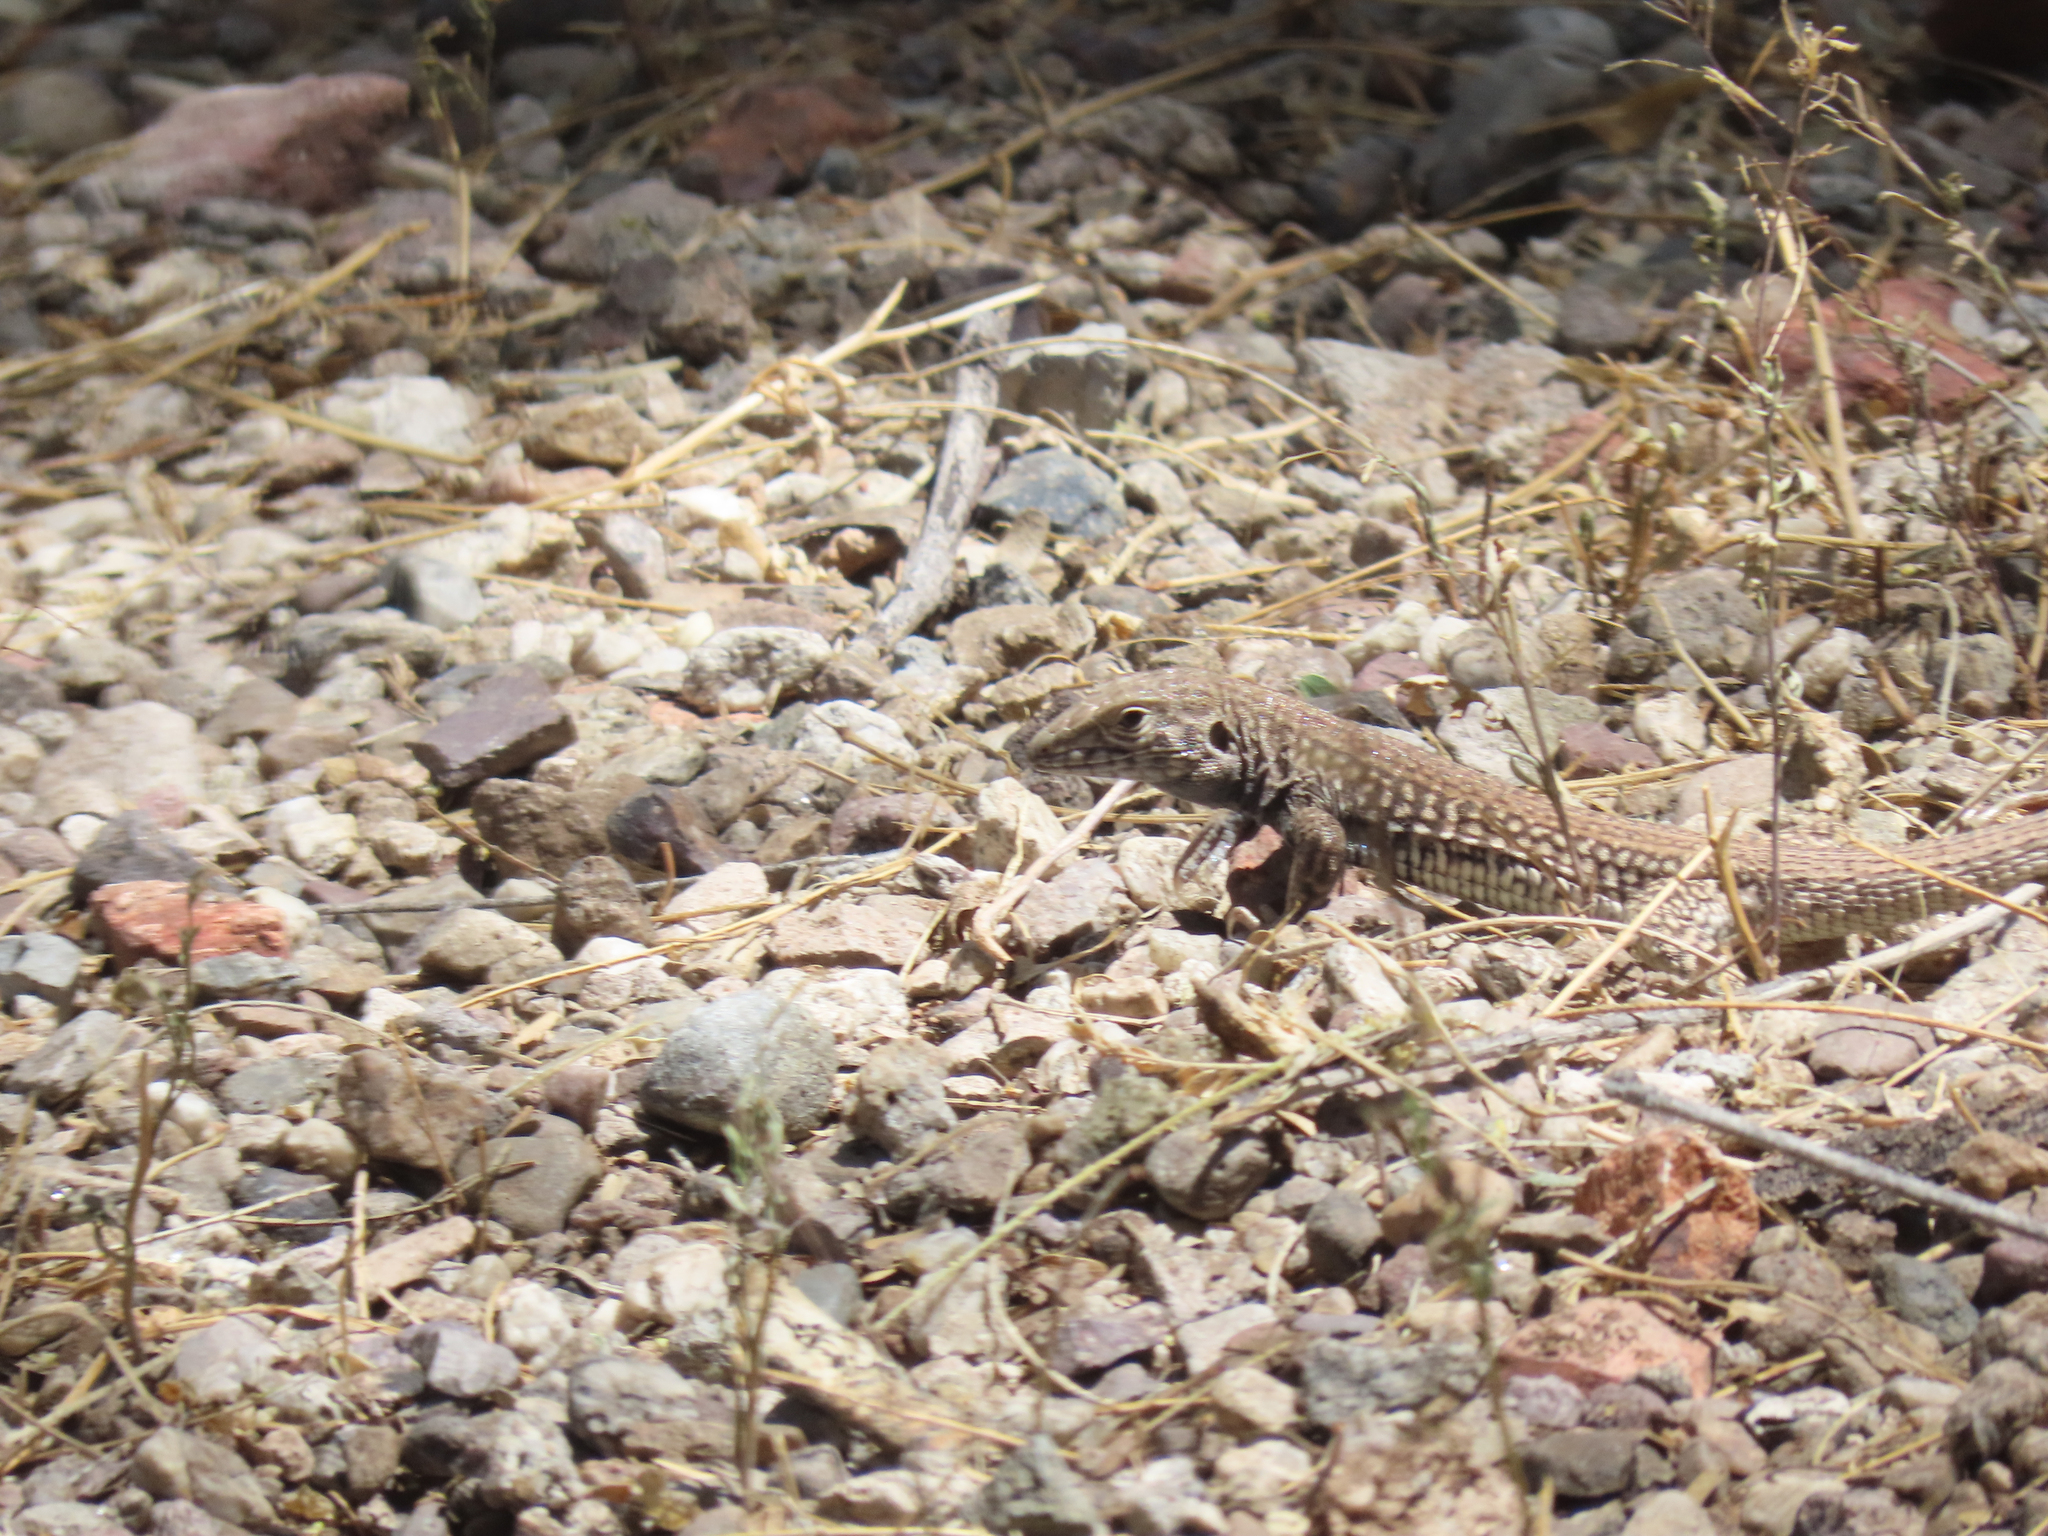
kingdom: Animalia
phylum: Chordata
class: Squamata
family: Teiidae
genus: Aspidoscelis
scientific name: Aspidoscelis tigris
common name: Tiger whiptail
